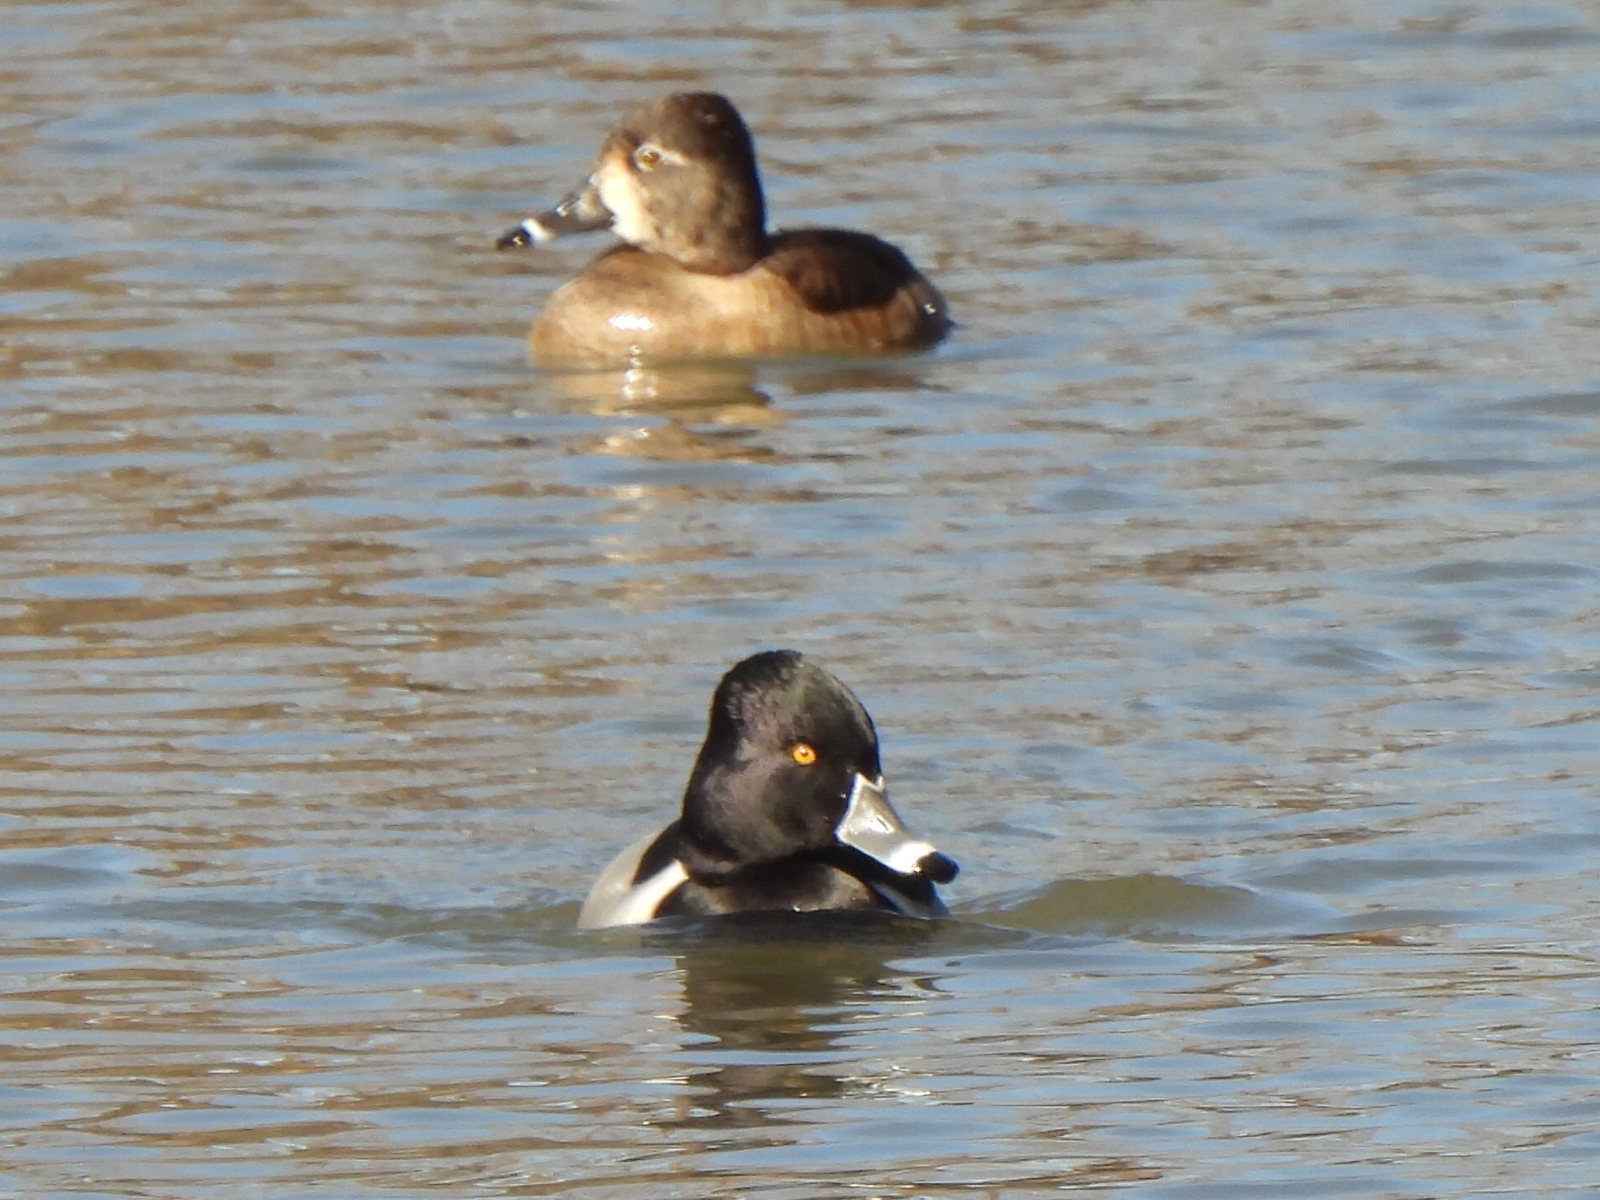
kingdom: Animalia
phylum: Chordata
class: Aves
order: Anseriformes
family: Anatidae
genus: Aythya
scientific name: Aythya collaris
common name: Ring-necked duck
